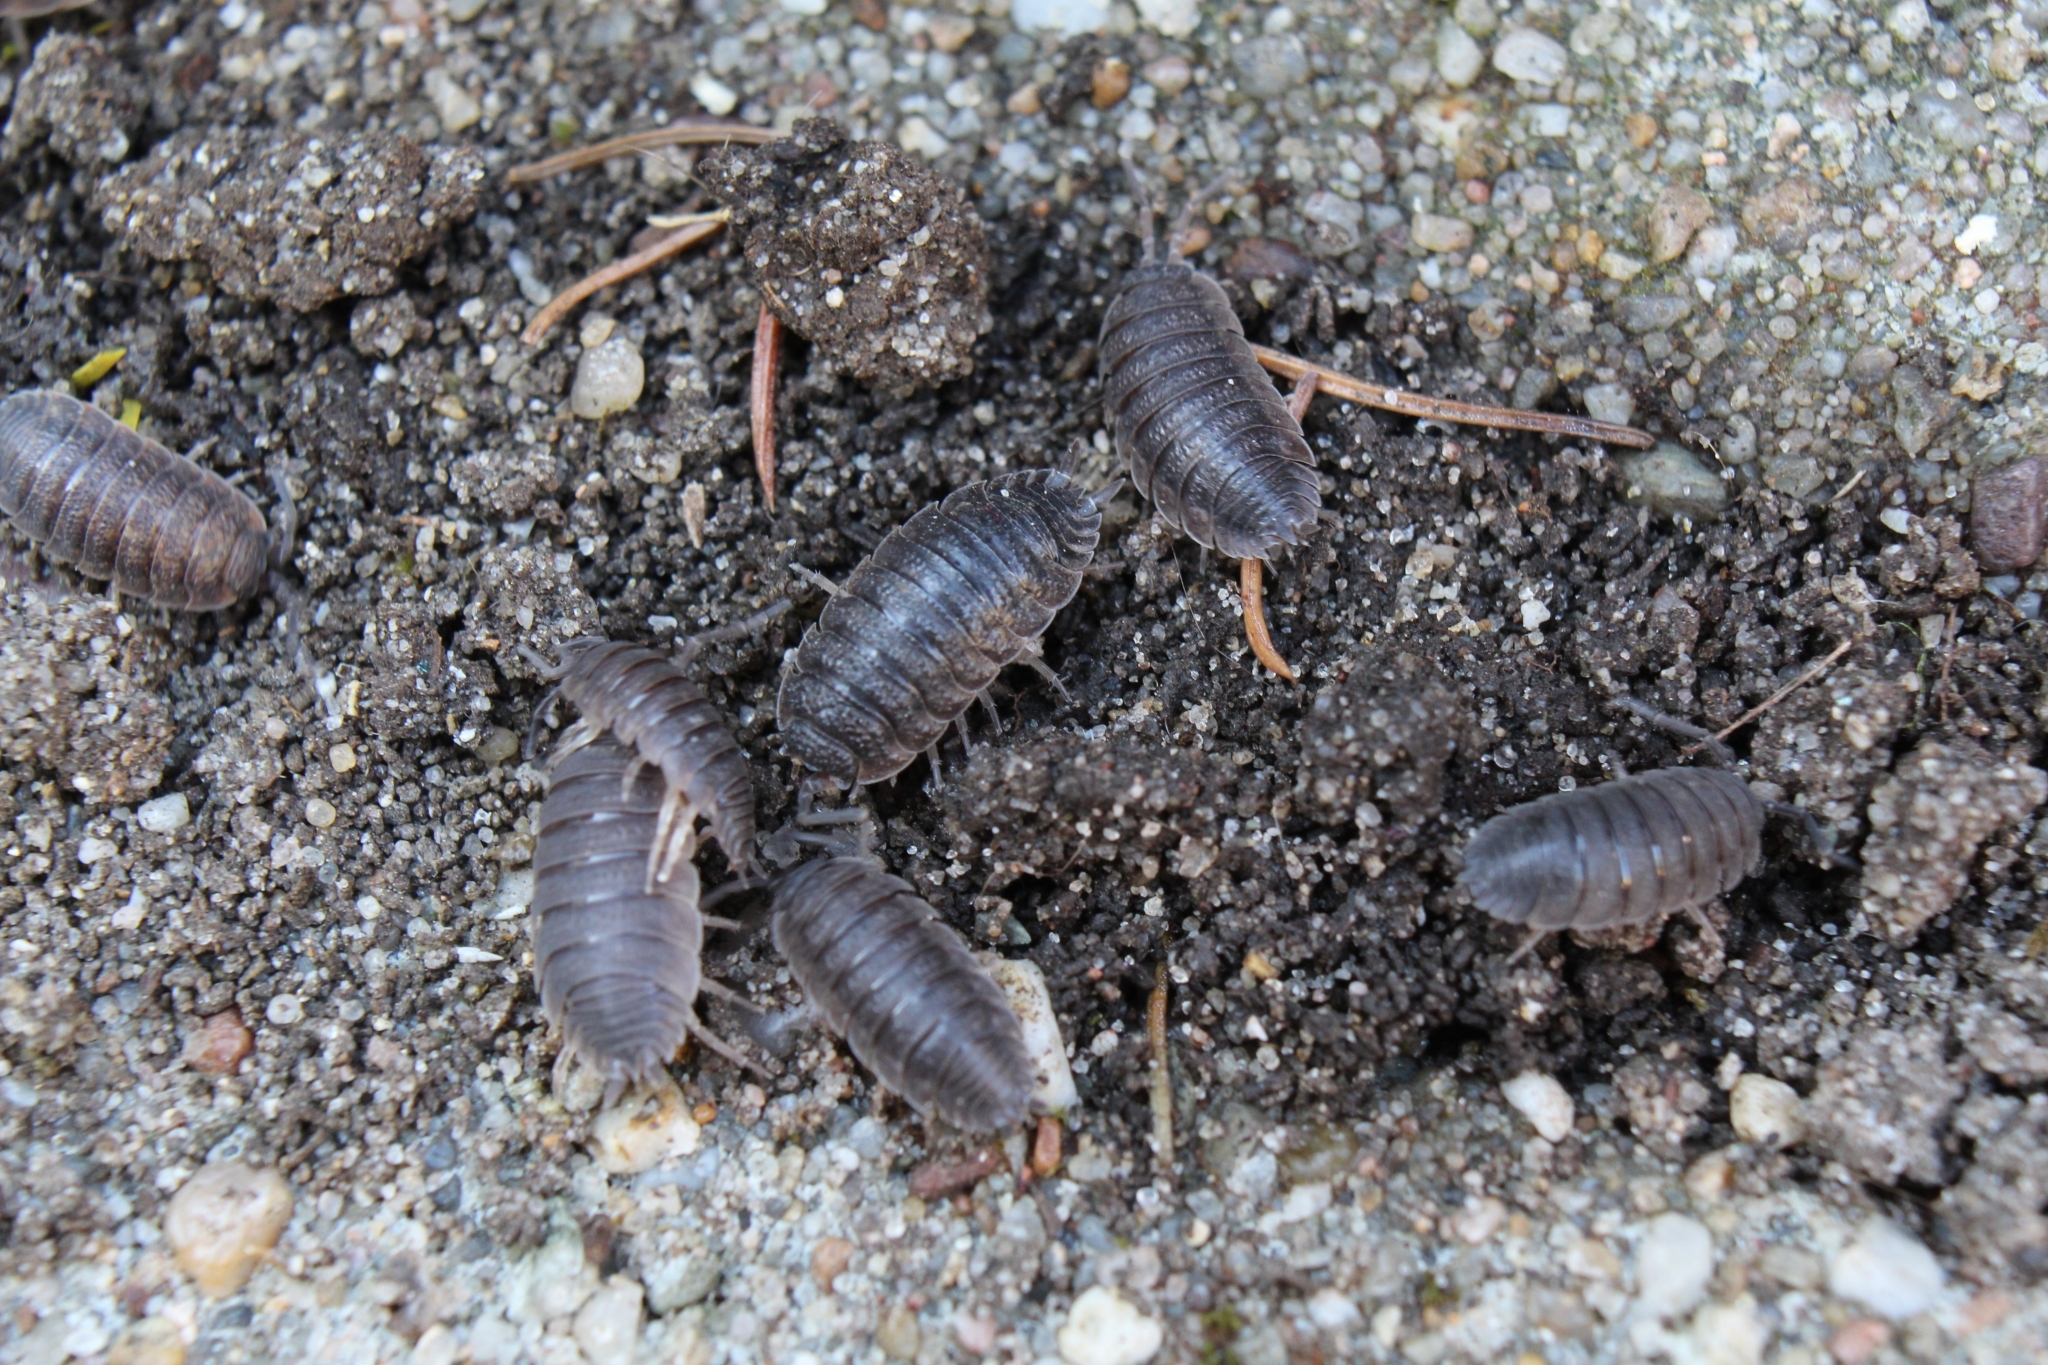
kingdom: Animalia
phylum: Arthropoda
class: Malacostraca
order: Isopoda
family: Porcellionidae
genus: Porcellio
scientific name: Porcellio scaber
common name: Common rough woodlouse
